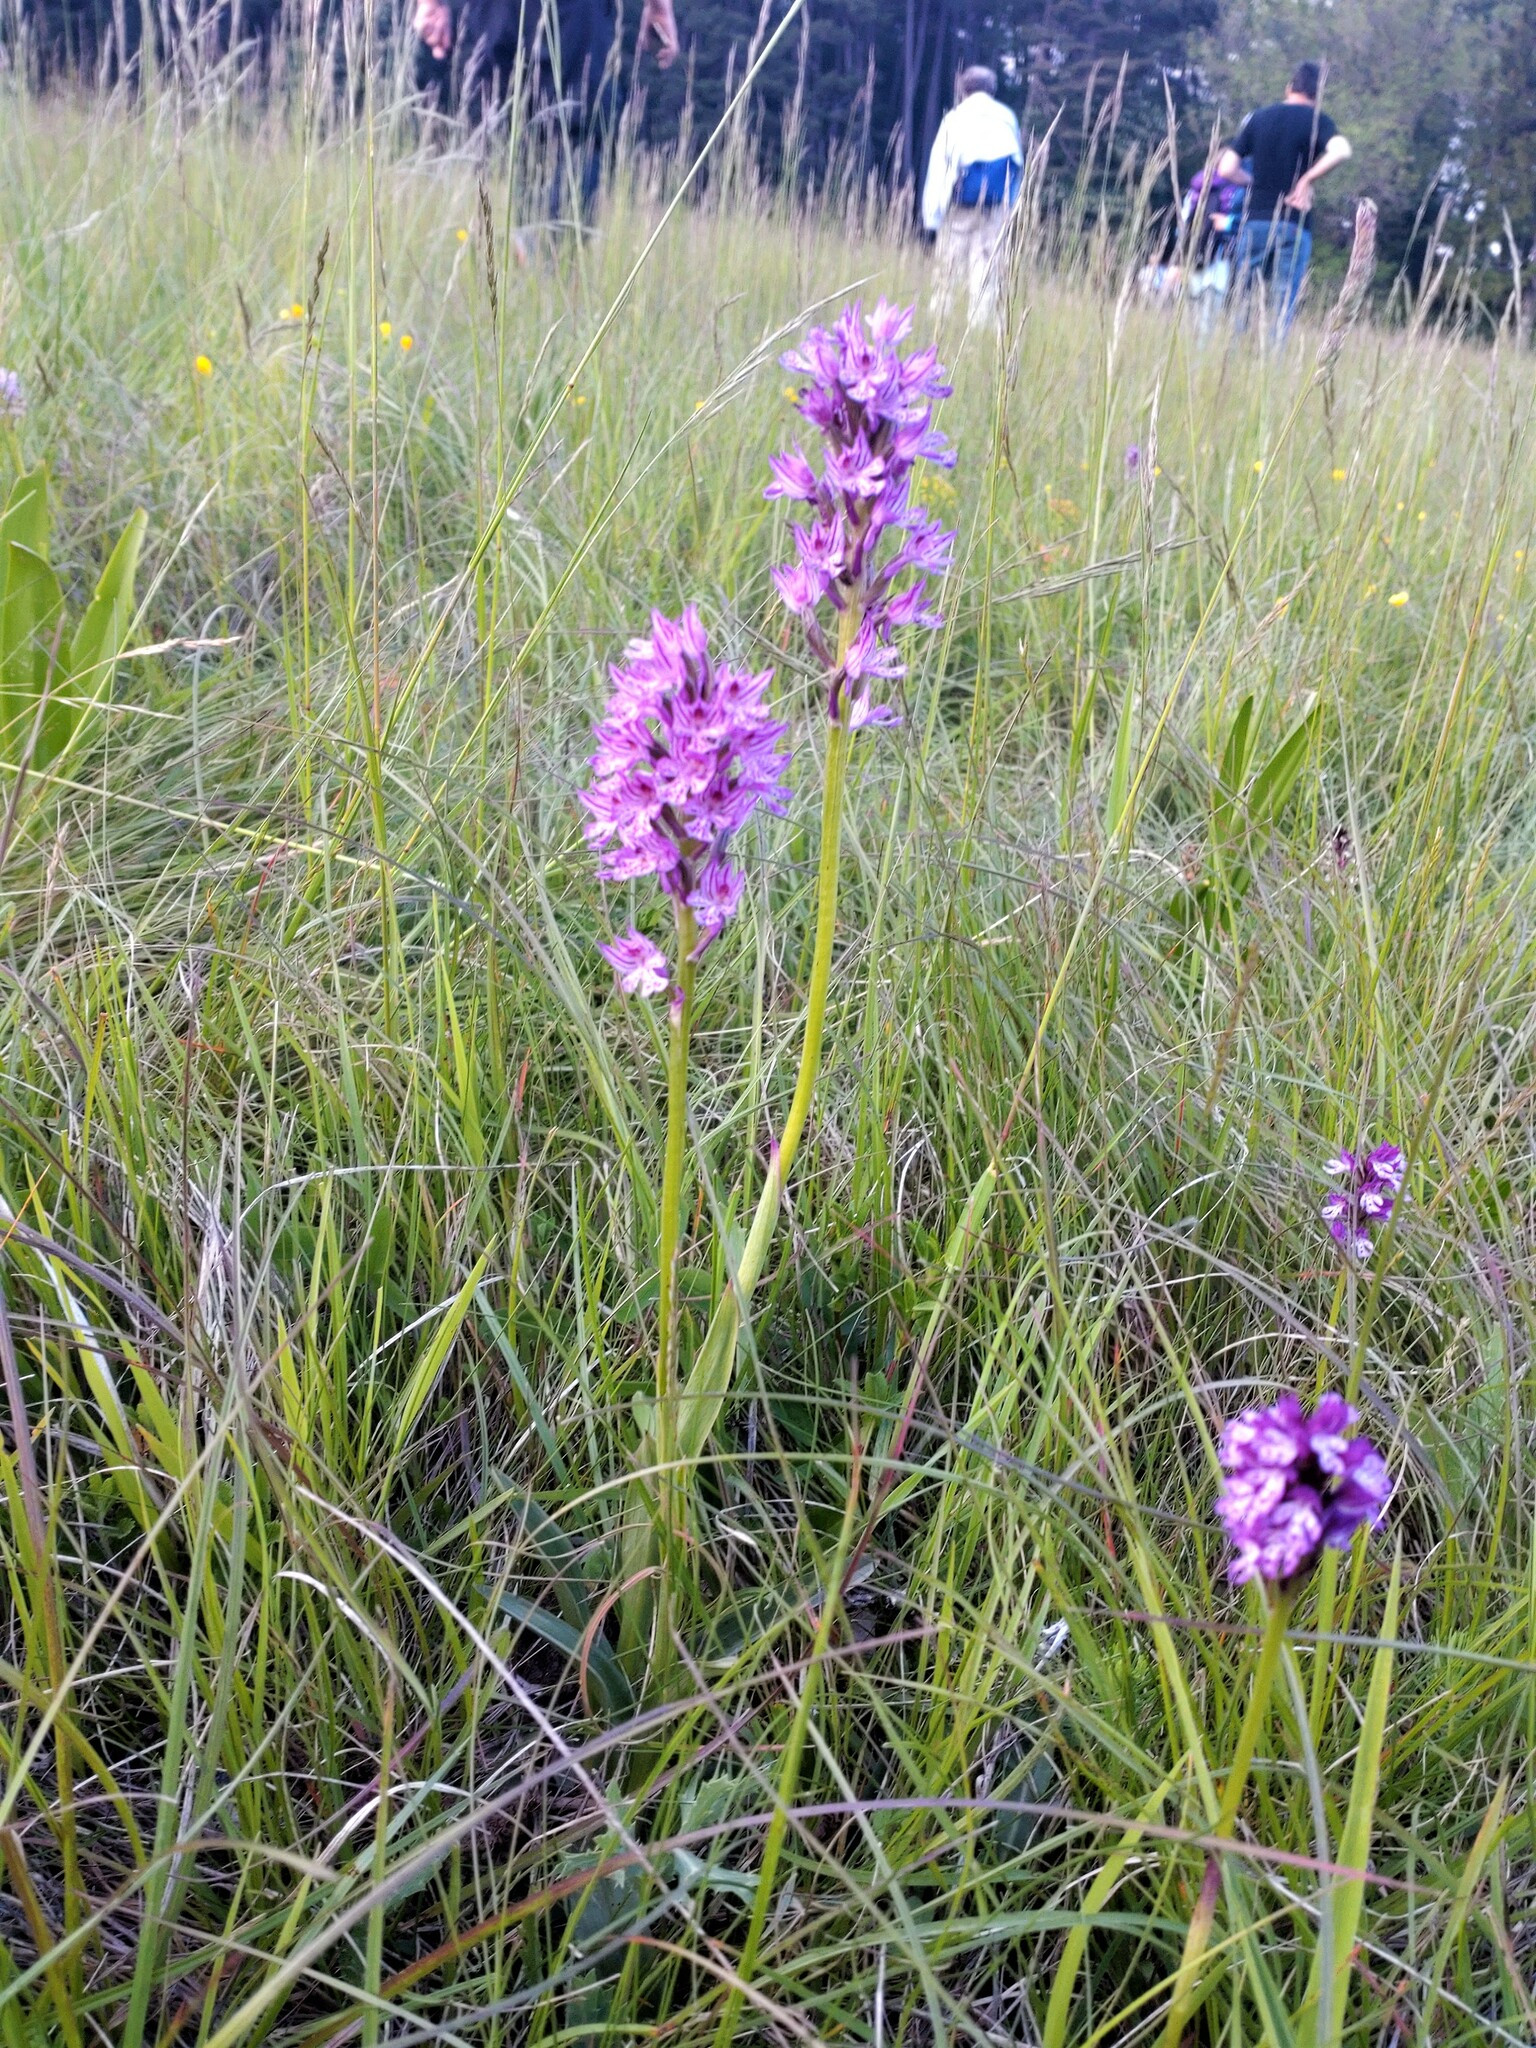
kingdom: Plantae
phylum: Tracheophyta
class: Liliopsida
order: Asparagales
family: Orchidaceae
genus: Neotinea
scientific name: Neotinea tridentata
